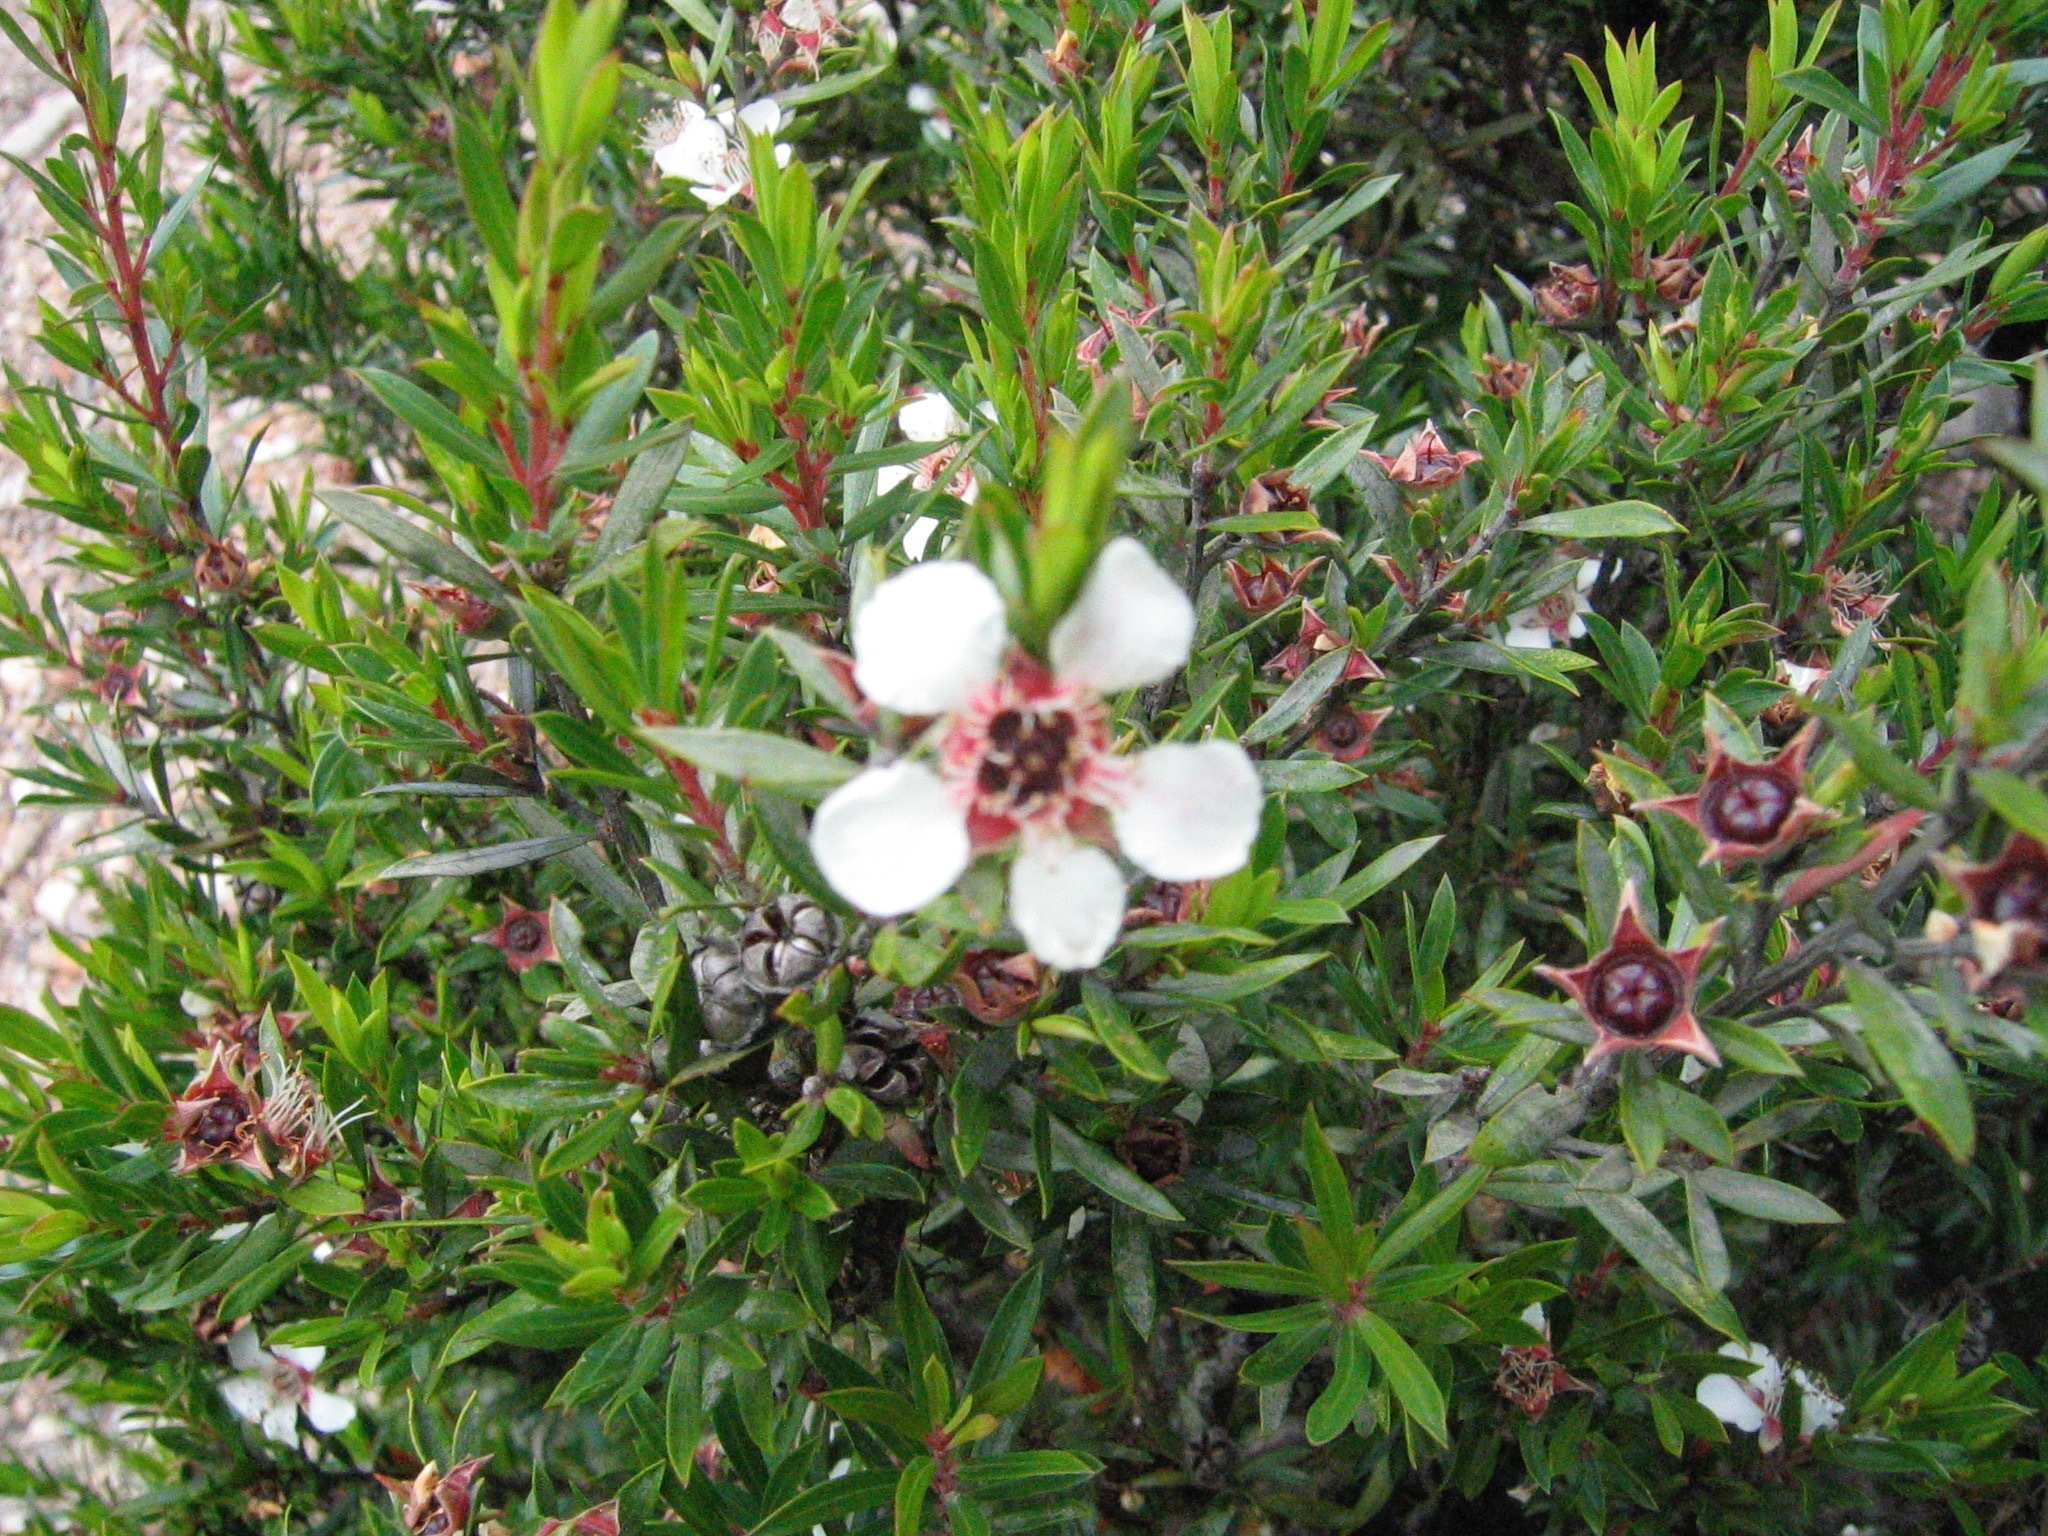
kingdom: Plantae
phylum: Tracheophyta
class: Magnoliopsida
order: Myrtales
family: Myrtaceae
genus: Leptospermum
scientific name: Leptospermum scoparium
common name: Broom tea-tree
